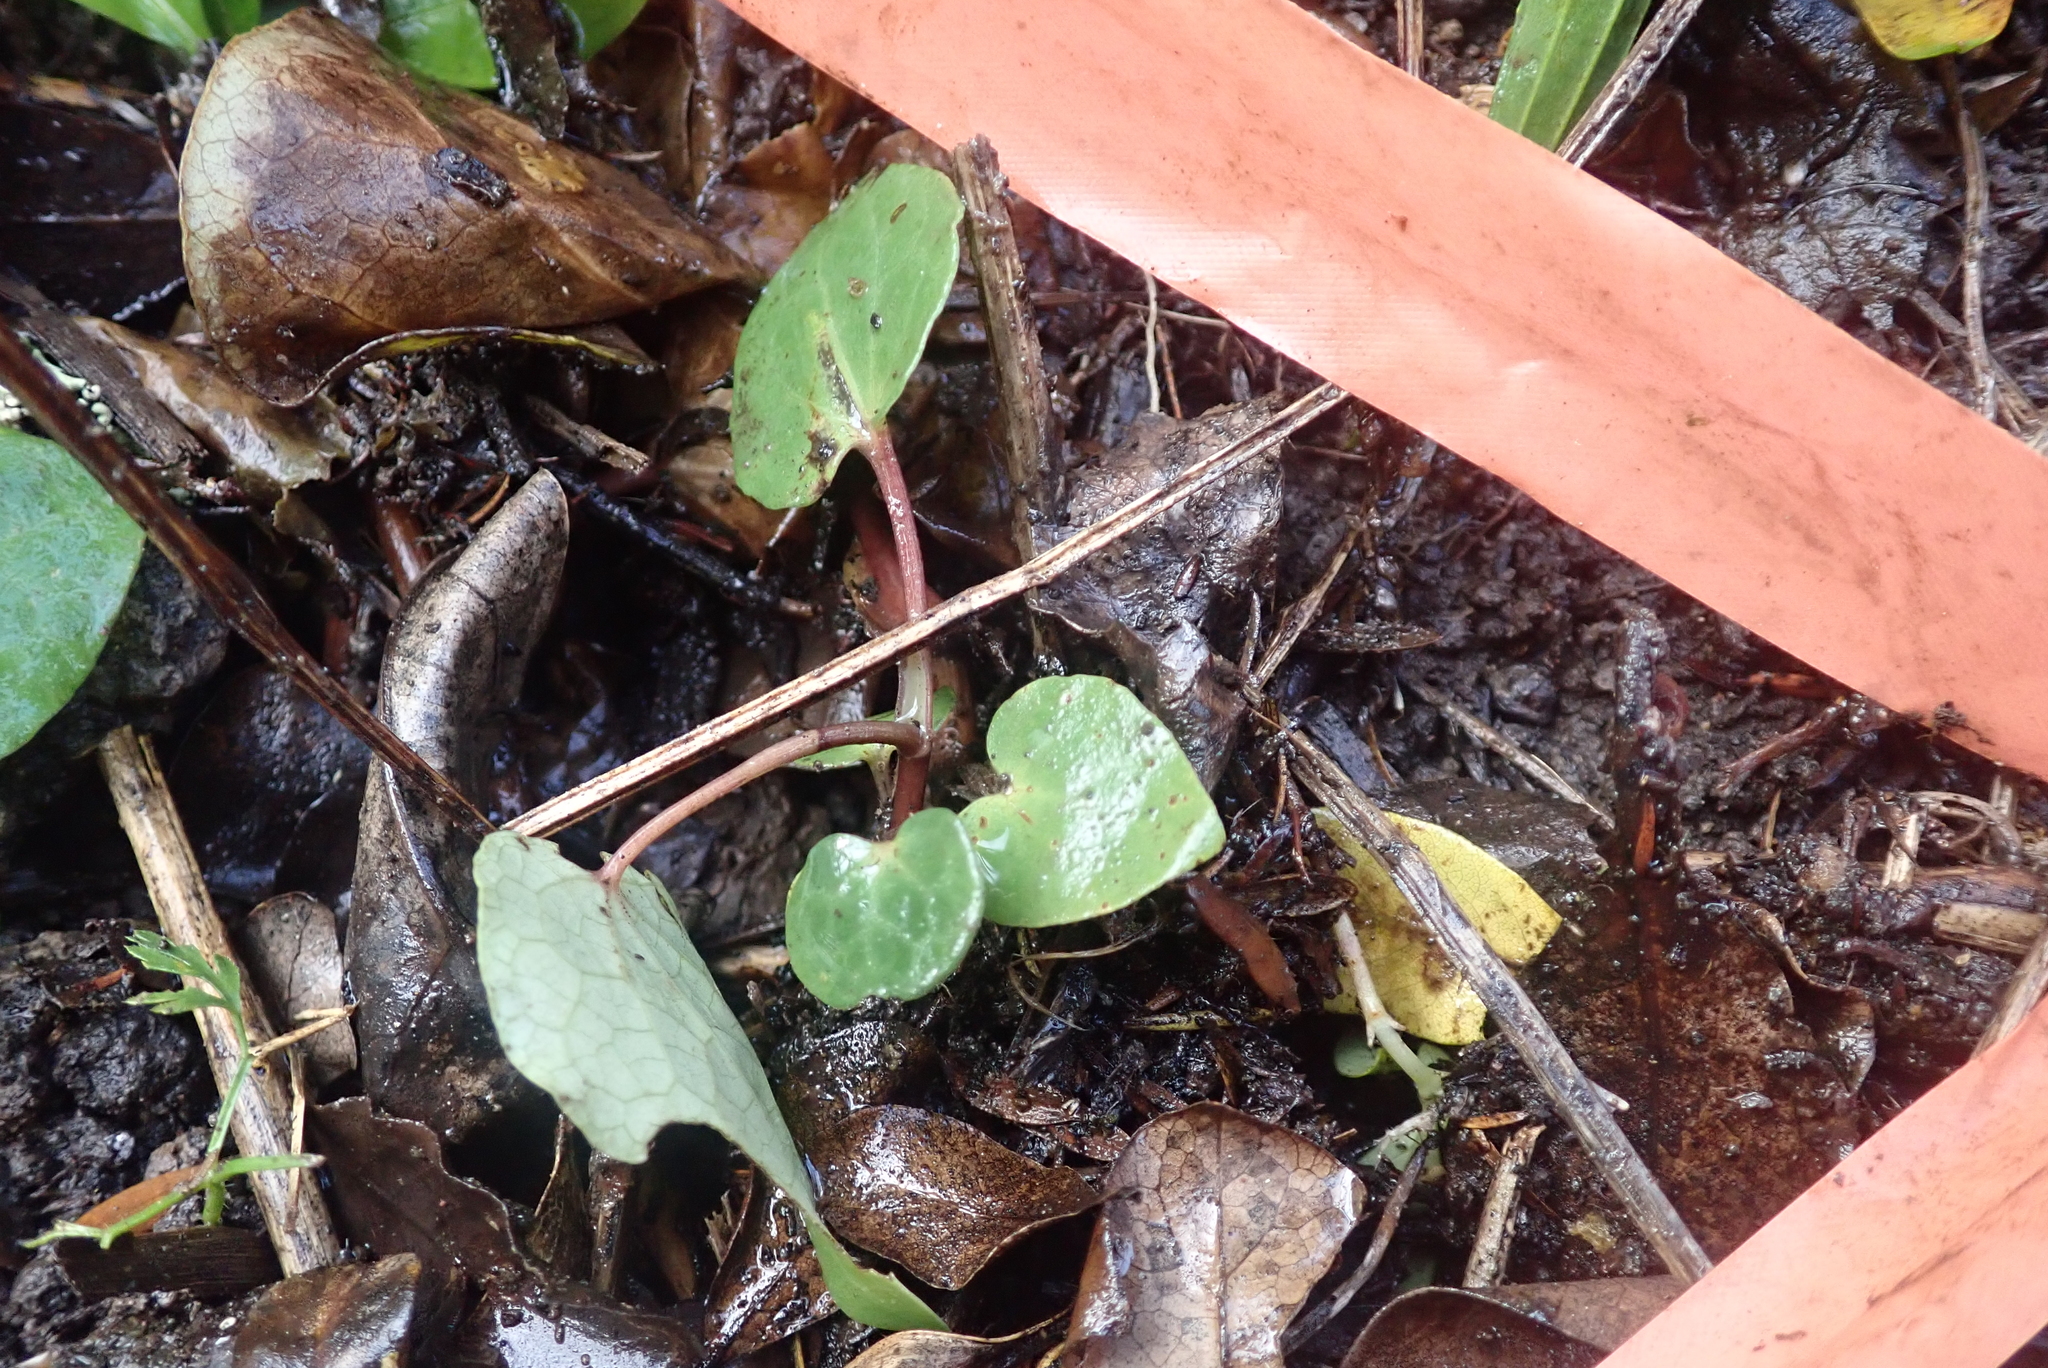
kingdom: Plantae
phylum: Tracheophyta
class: Magnoliopsida
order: Piperales
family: Piperaceae
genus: Macropiper
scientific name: Macropiper excelsum
